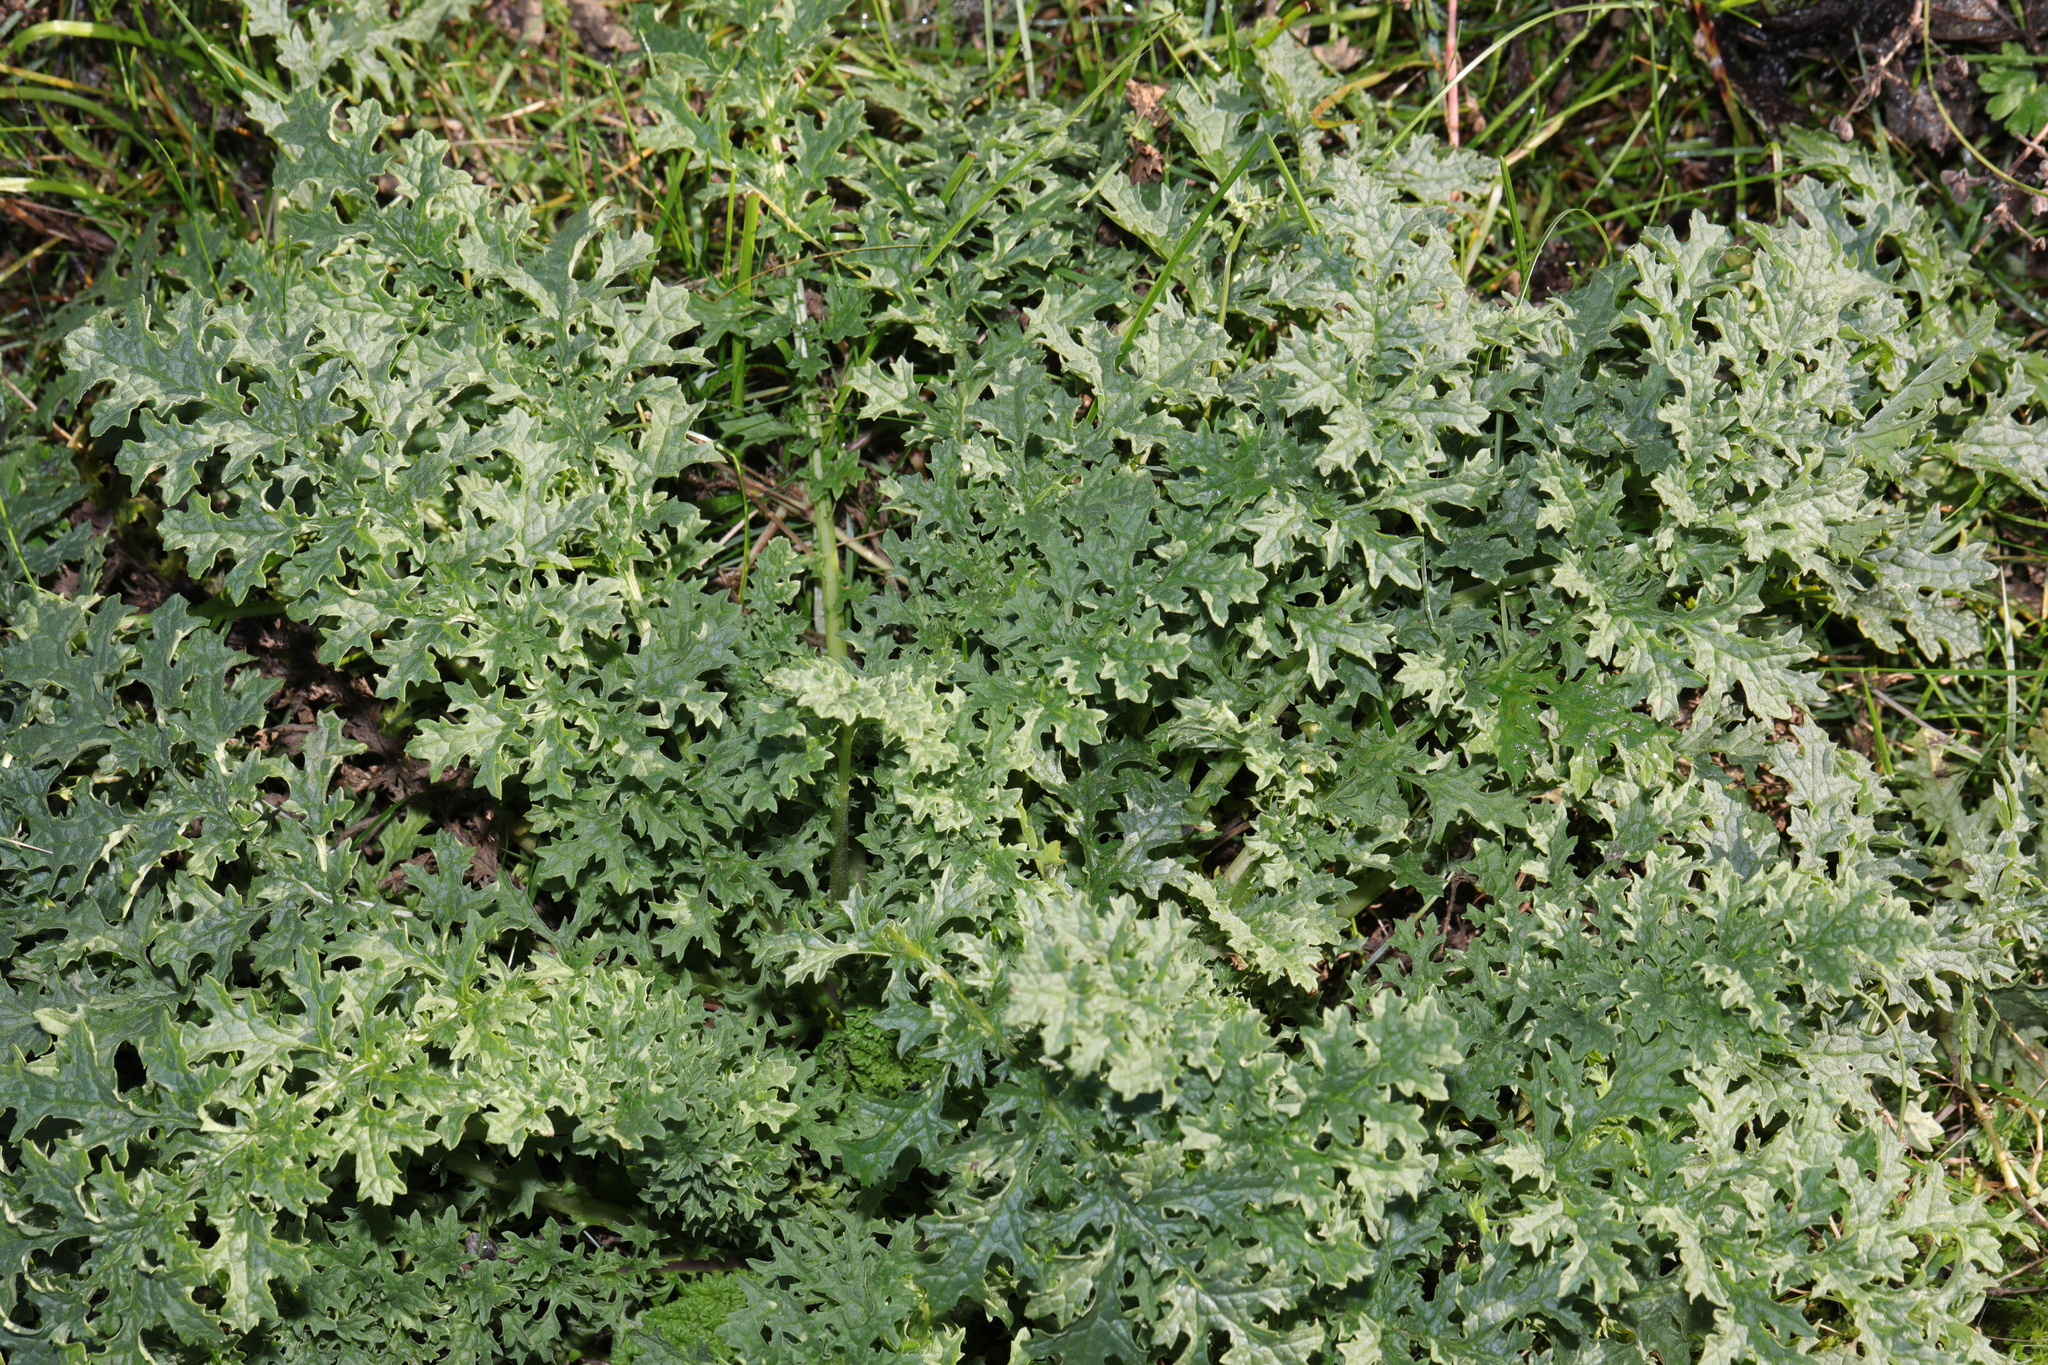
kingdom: Plantae
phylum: Tracheophyta
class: Magnoliopsida
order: Asterales
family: Asteraceae
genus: Jacobaea
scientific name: Jacobaea vulgaris
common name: Stinking willie
